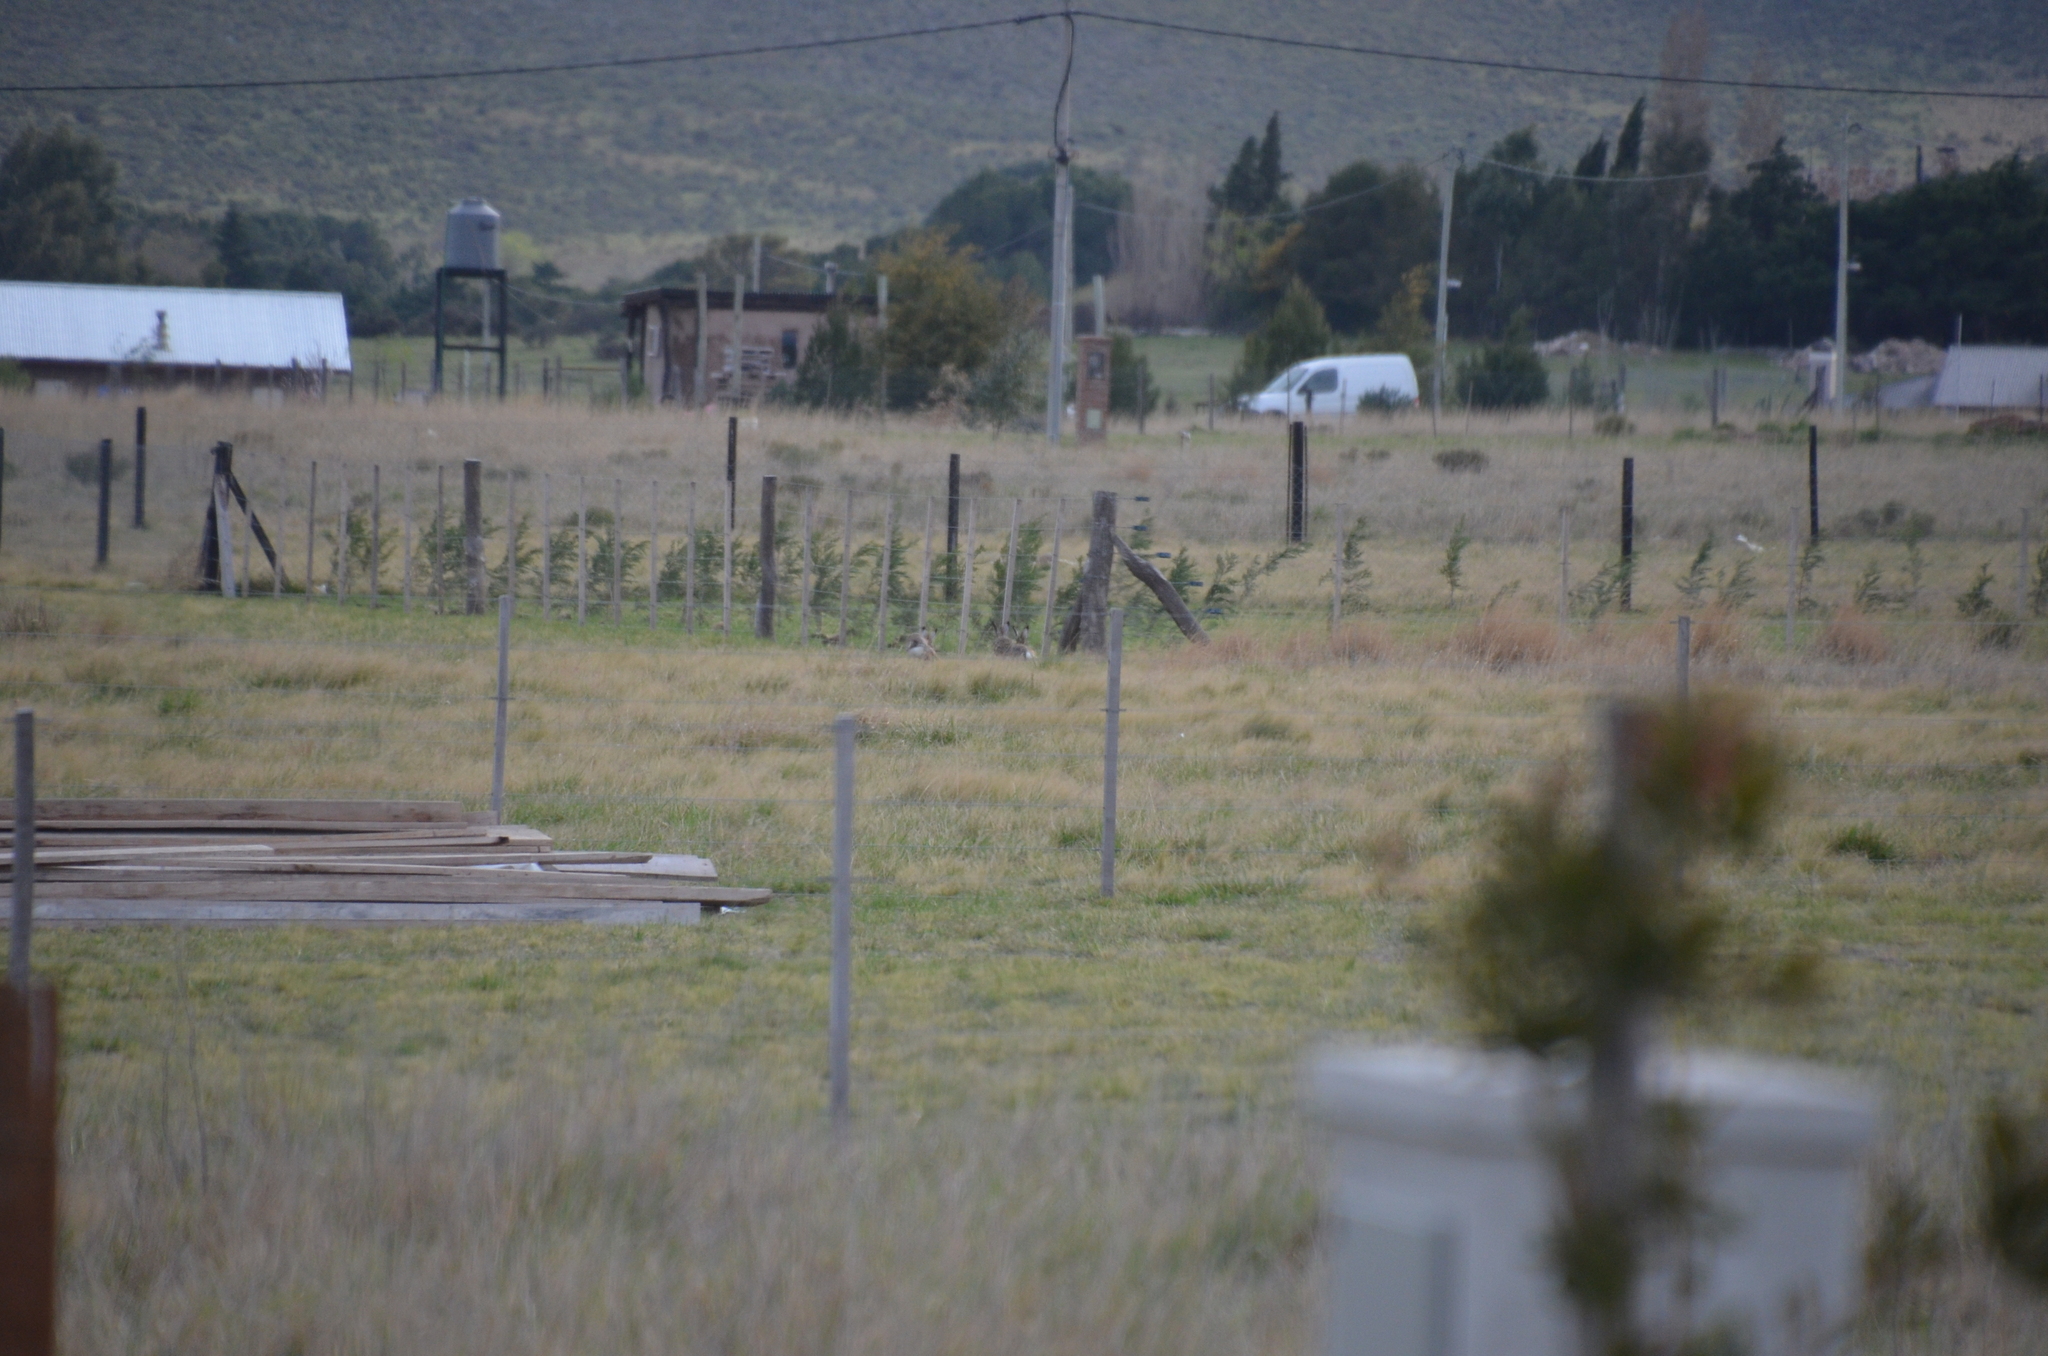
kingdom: Animalia
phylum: Chordata
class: Mammalia
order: Lagomorpha
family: Leporidae
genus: Lepus
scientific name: Lepus europaeus
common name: European hare
